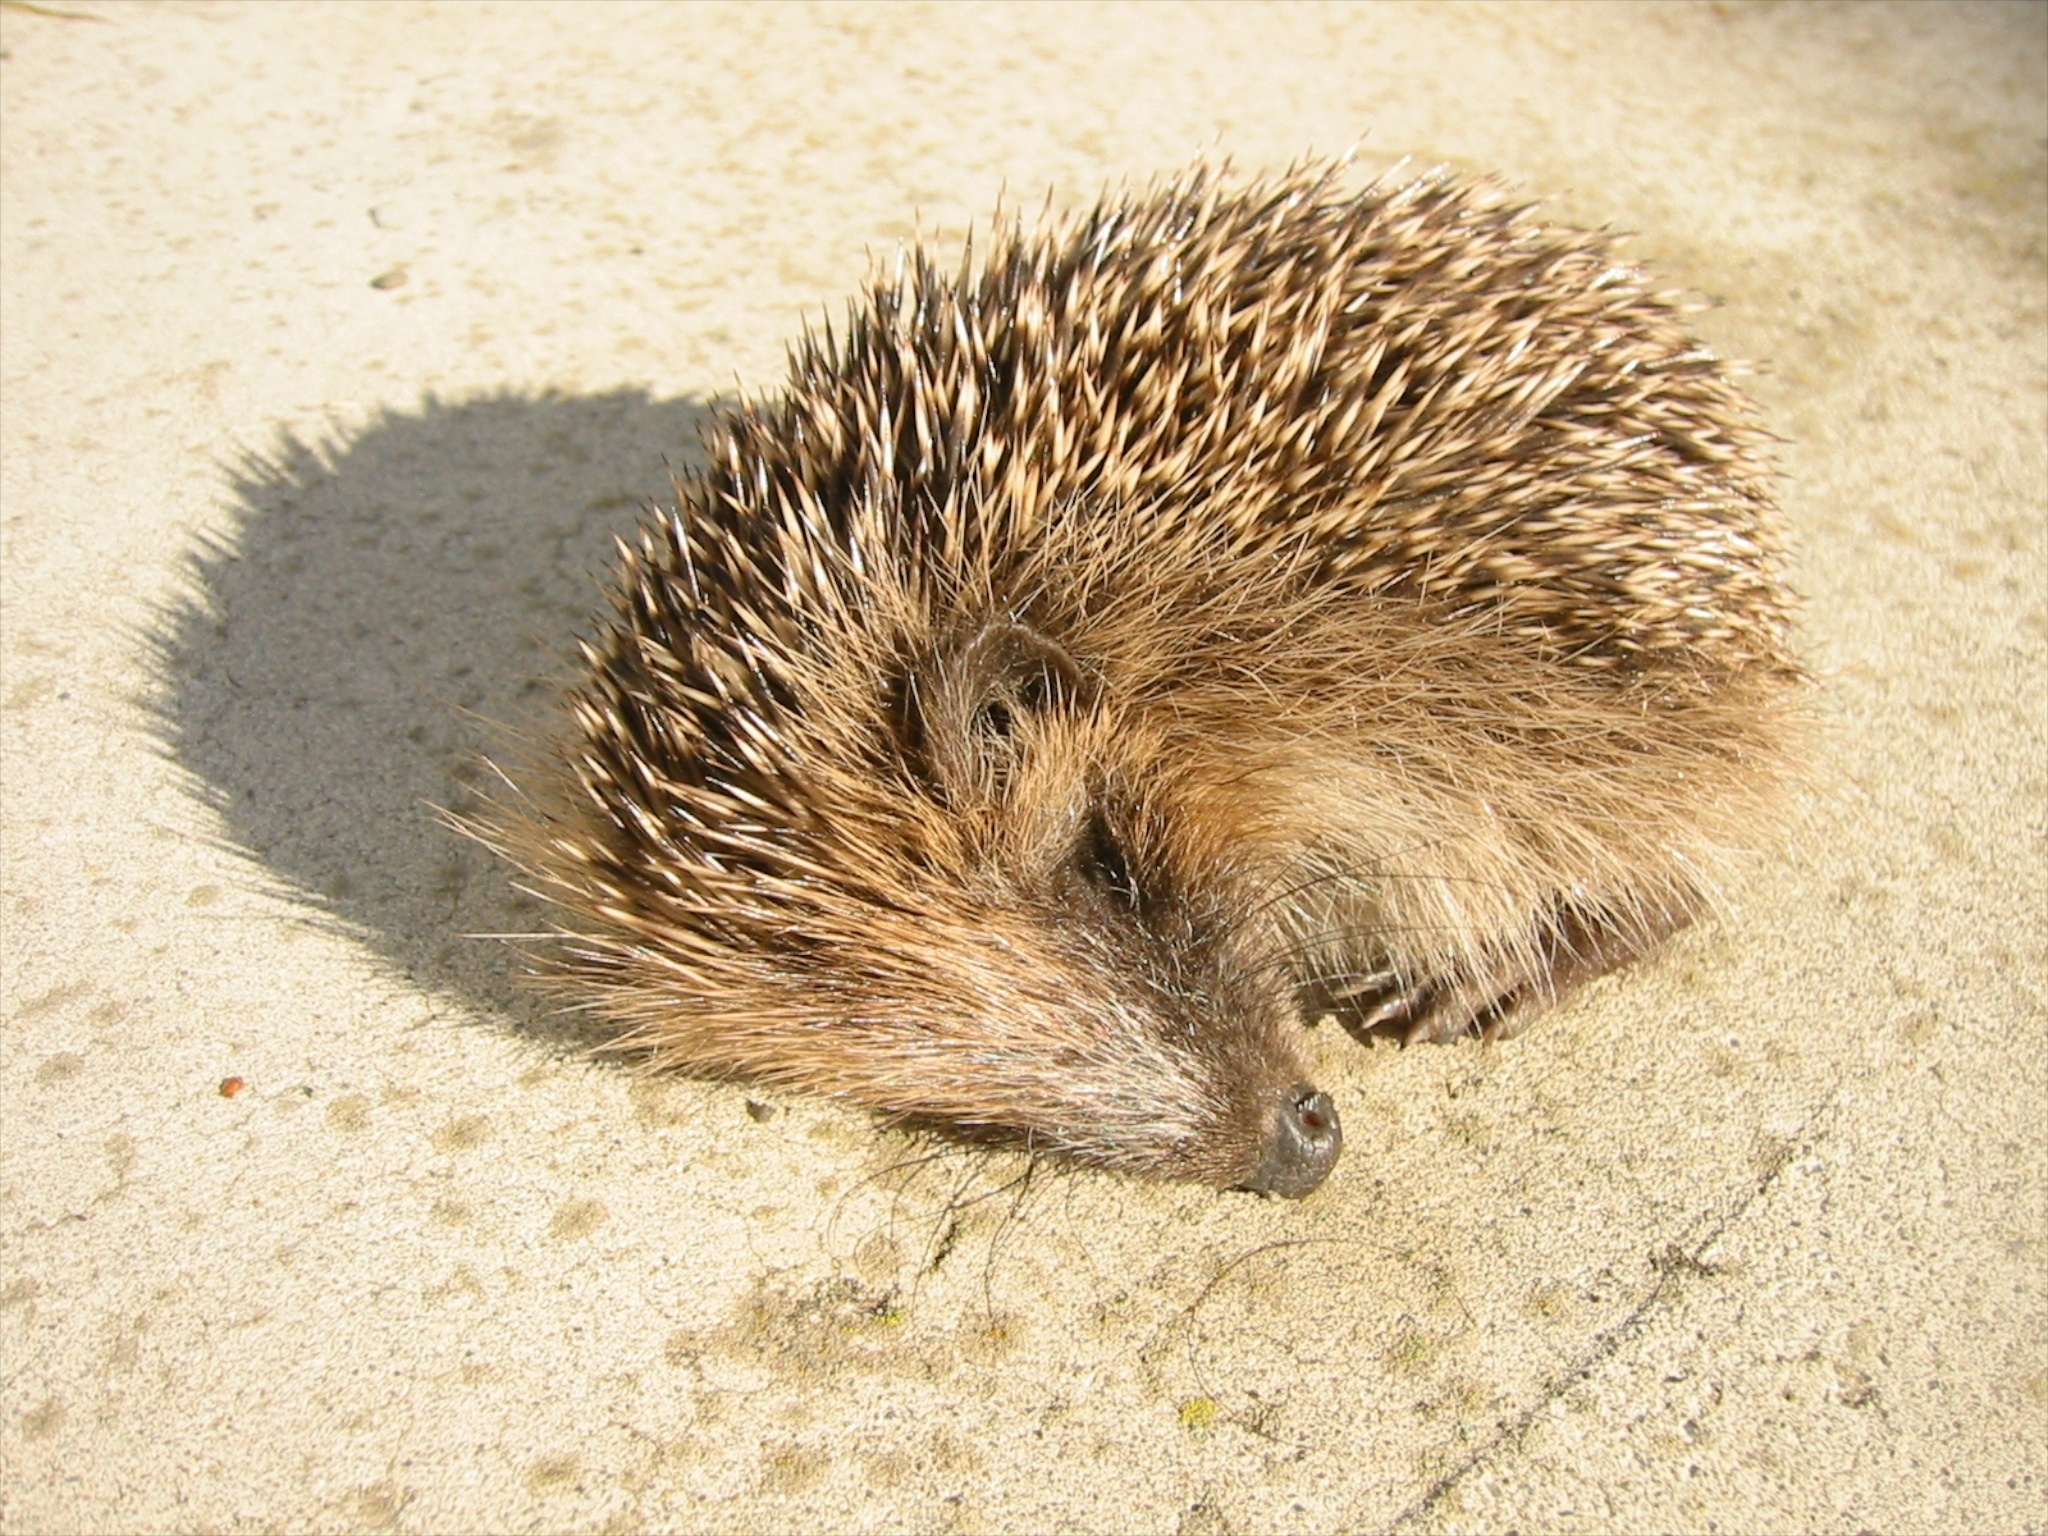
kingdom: Animalia
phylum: Chordata
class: Mammalia
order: Erinaceomorpha
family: Erinaceidae
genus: Erinaceus
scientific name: Erinaceus europaeus
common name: West european hedgehog
